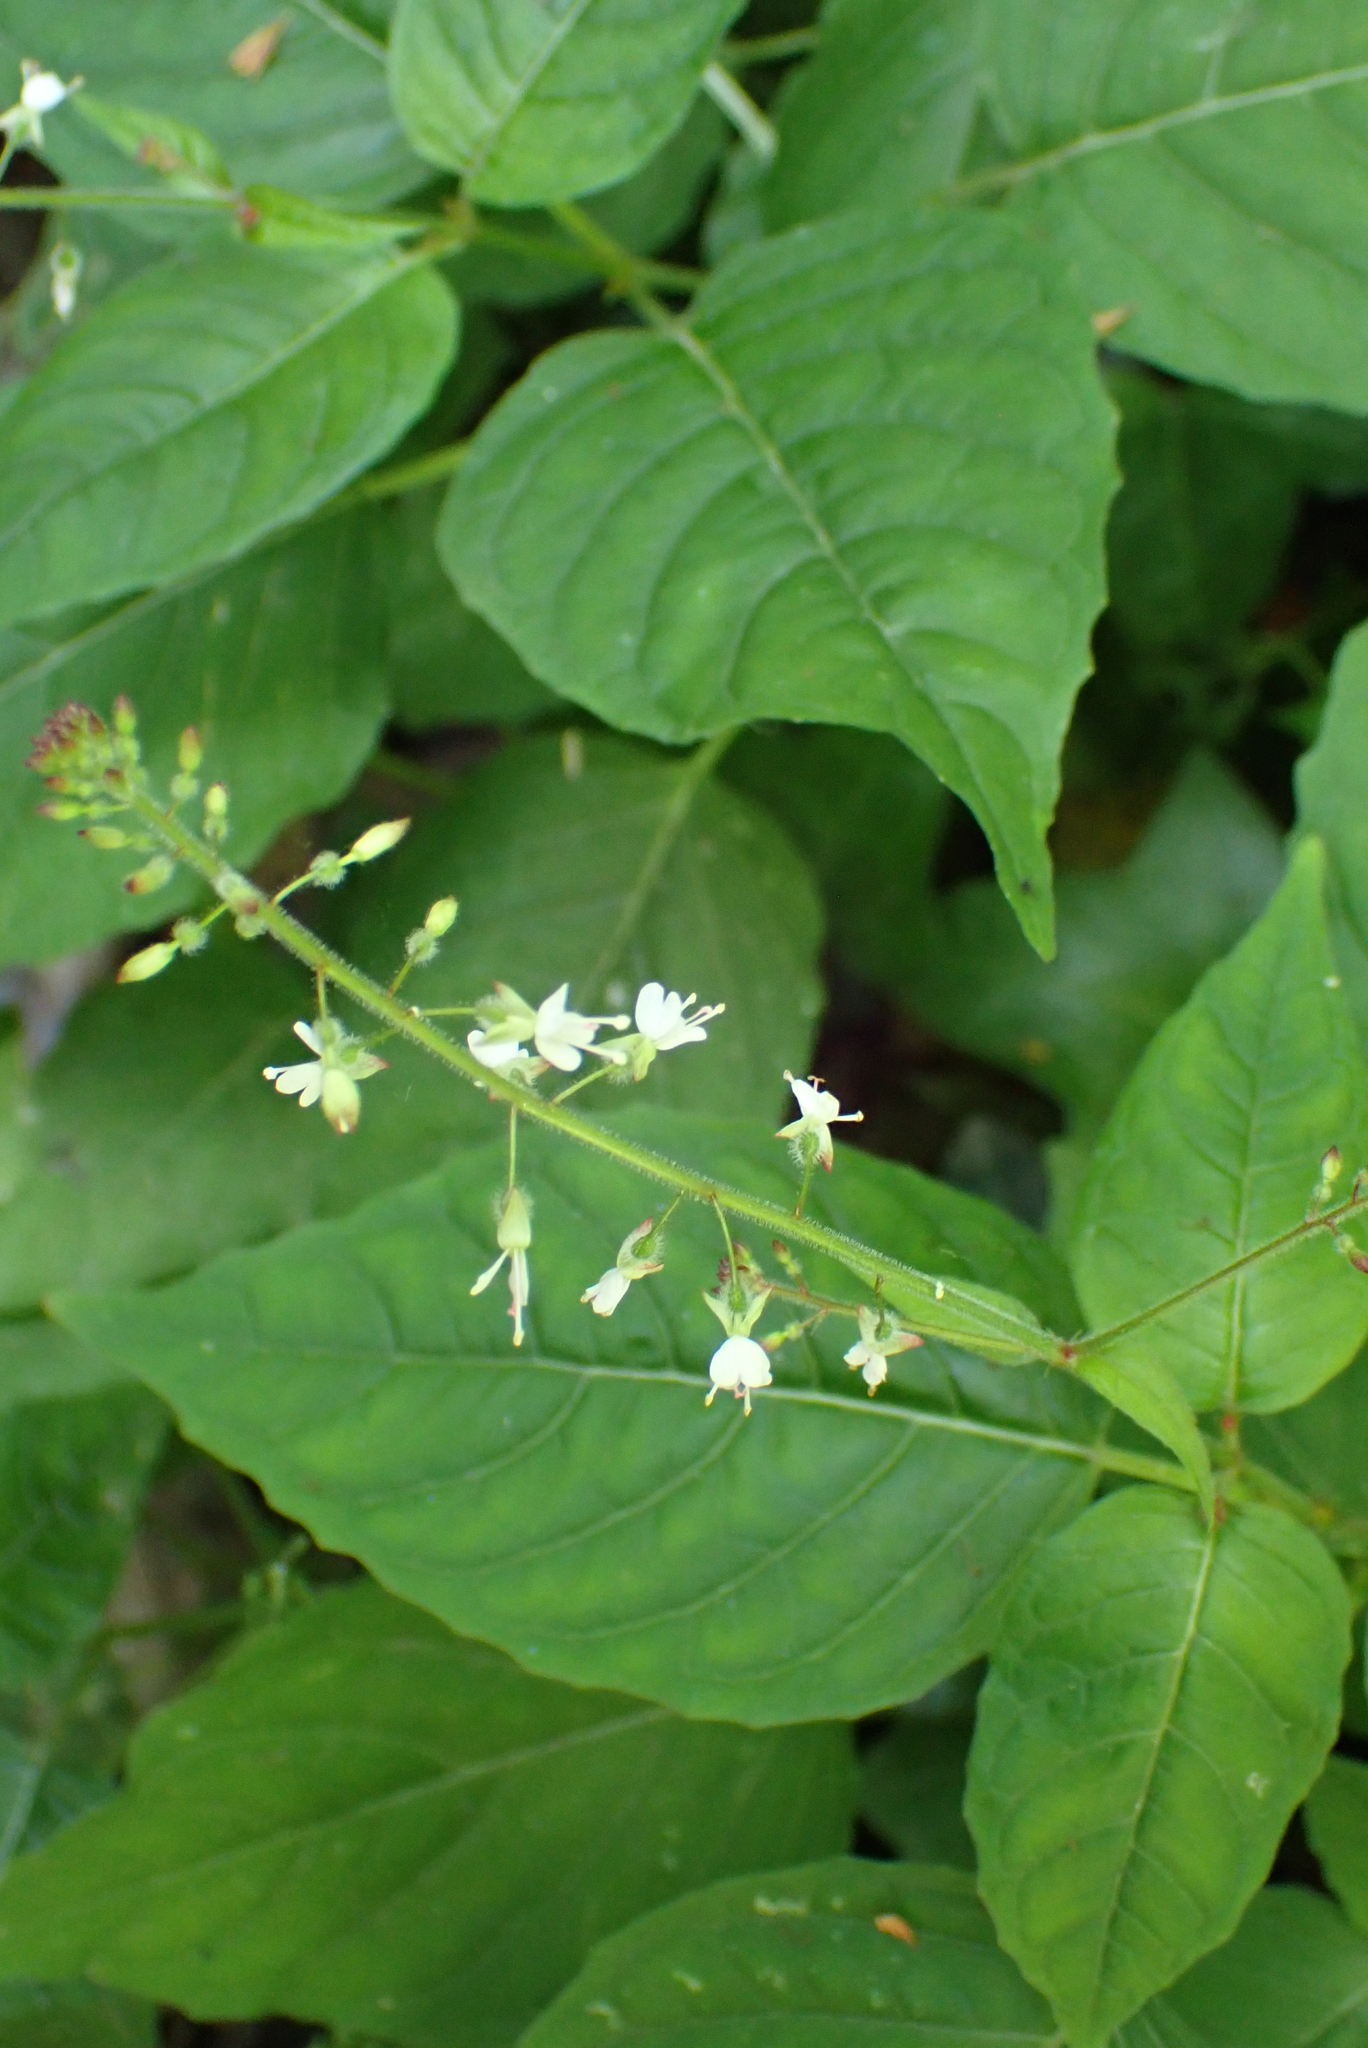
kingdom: Plantae
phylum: Tracheophyta
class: Magnoliopsida
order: Myrtales
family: Onagraceae
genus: Circaea
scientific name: Circaea lutetiana
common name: Enchanter's-nightshade
